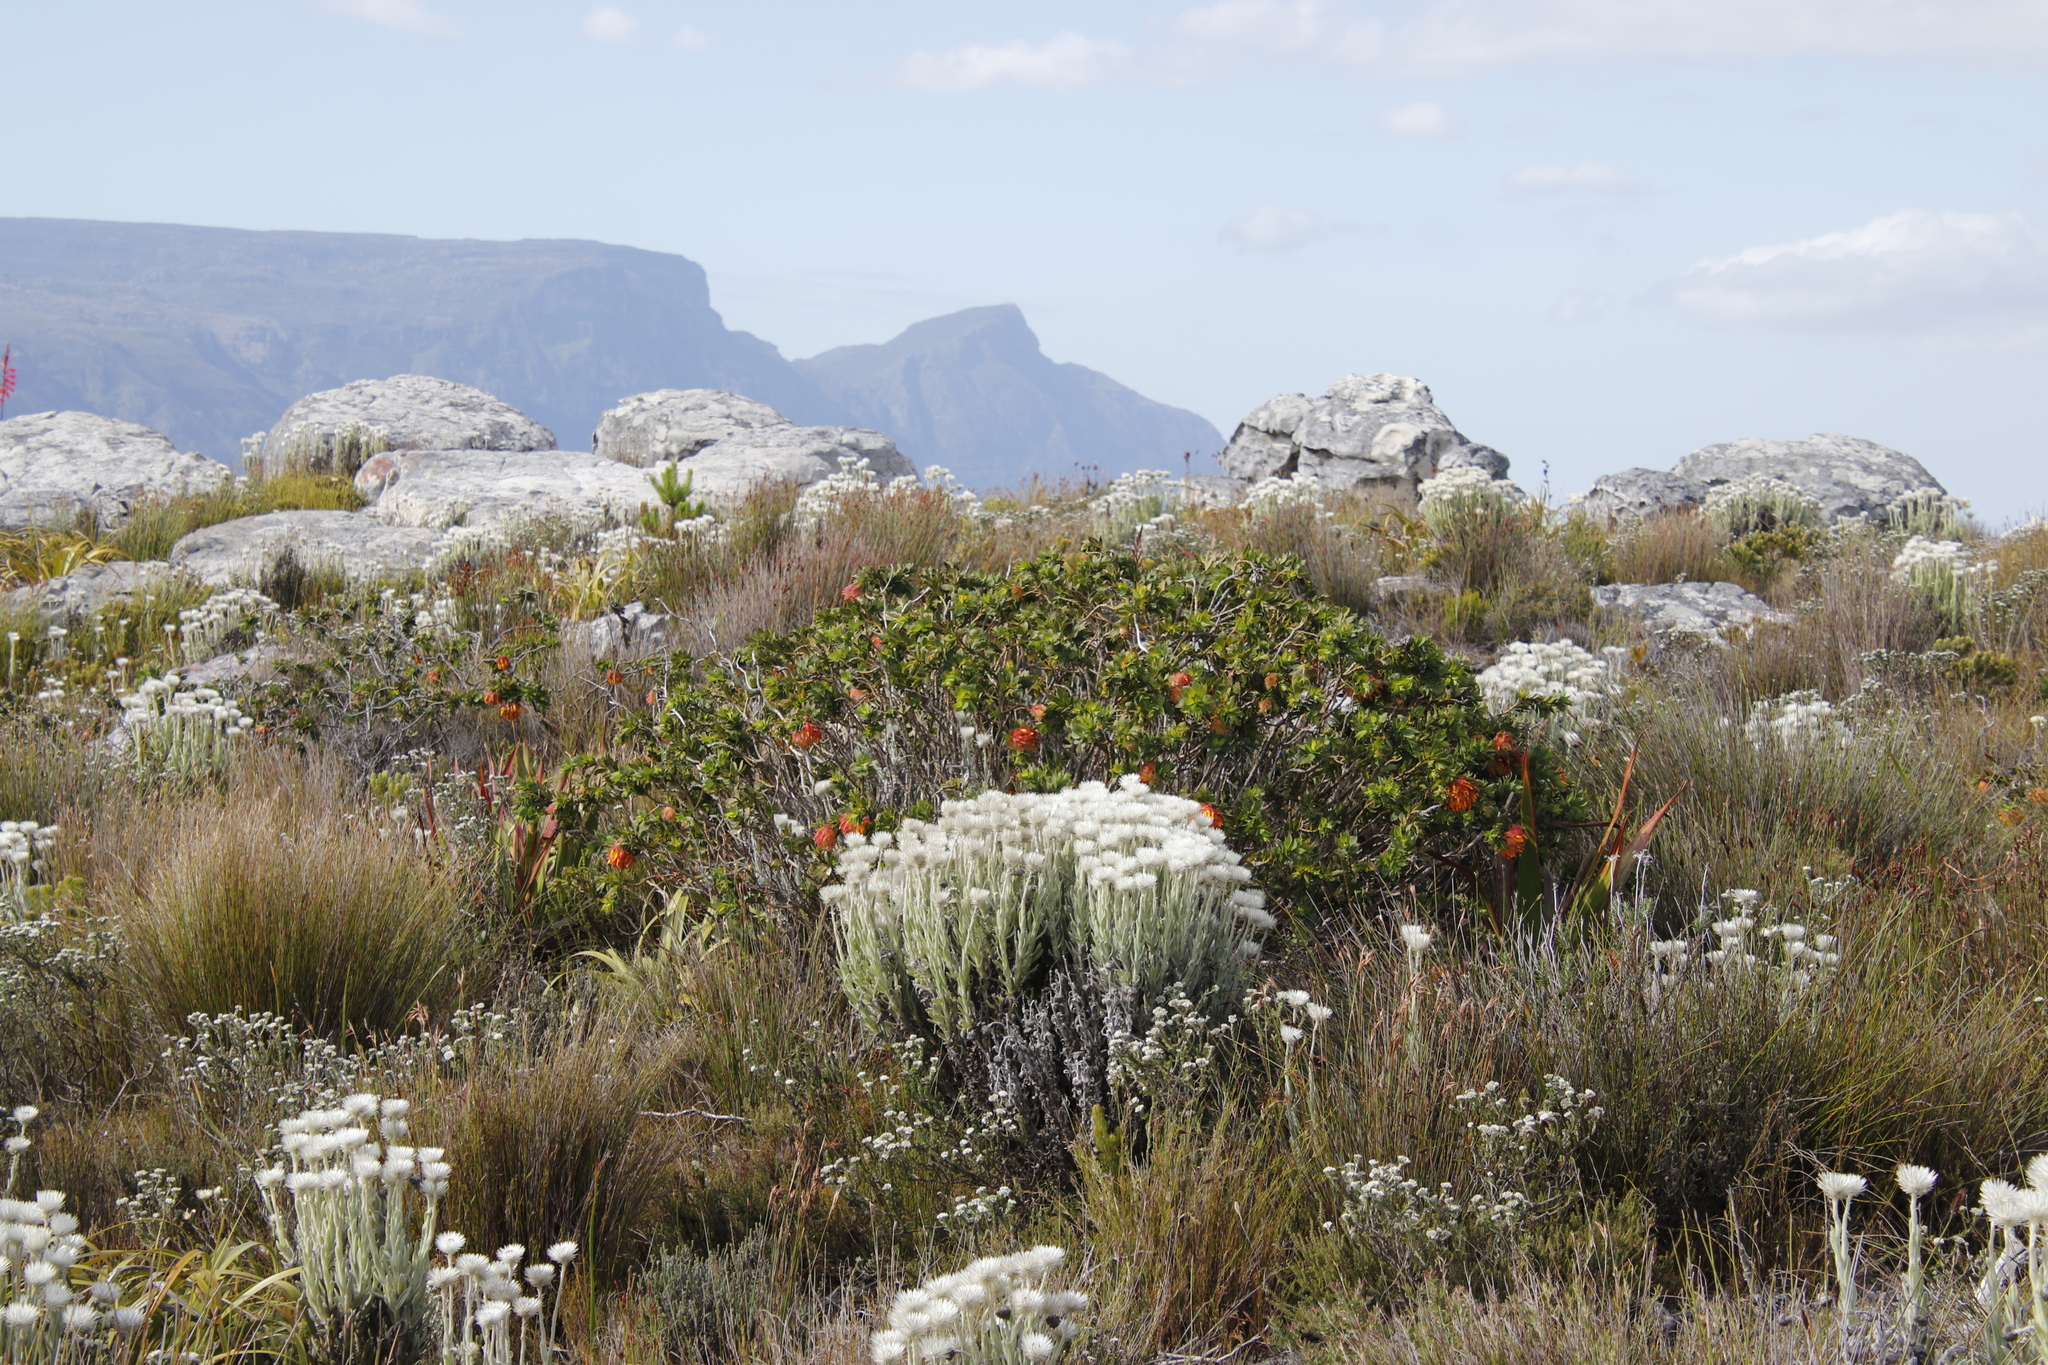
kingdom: Plantae
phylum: Tracheophyta
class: Magnoliopsida
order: Fabales
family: Fabaceae
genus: Liparia
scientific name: Liparia splendens
